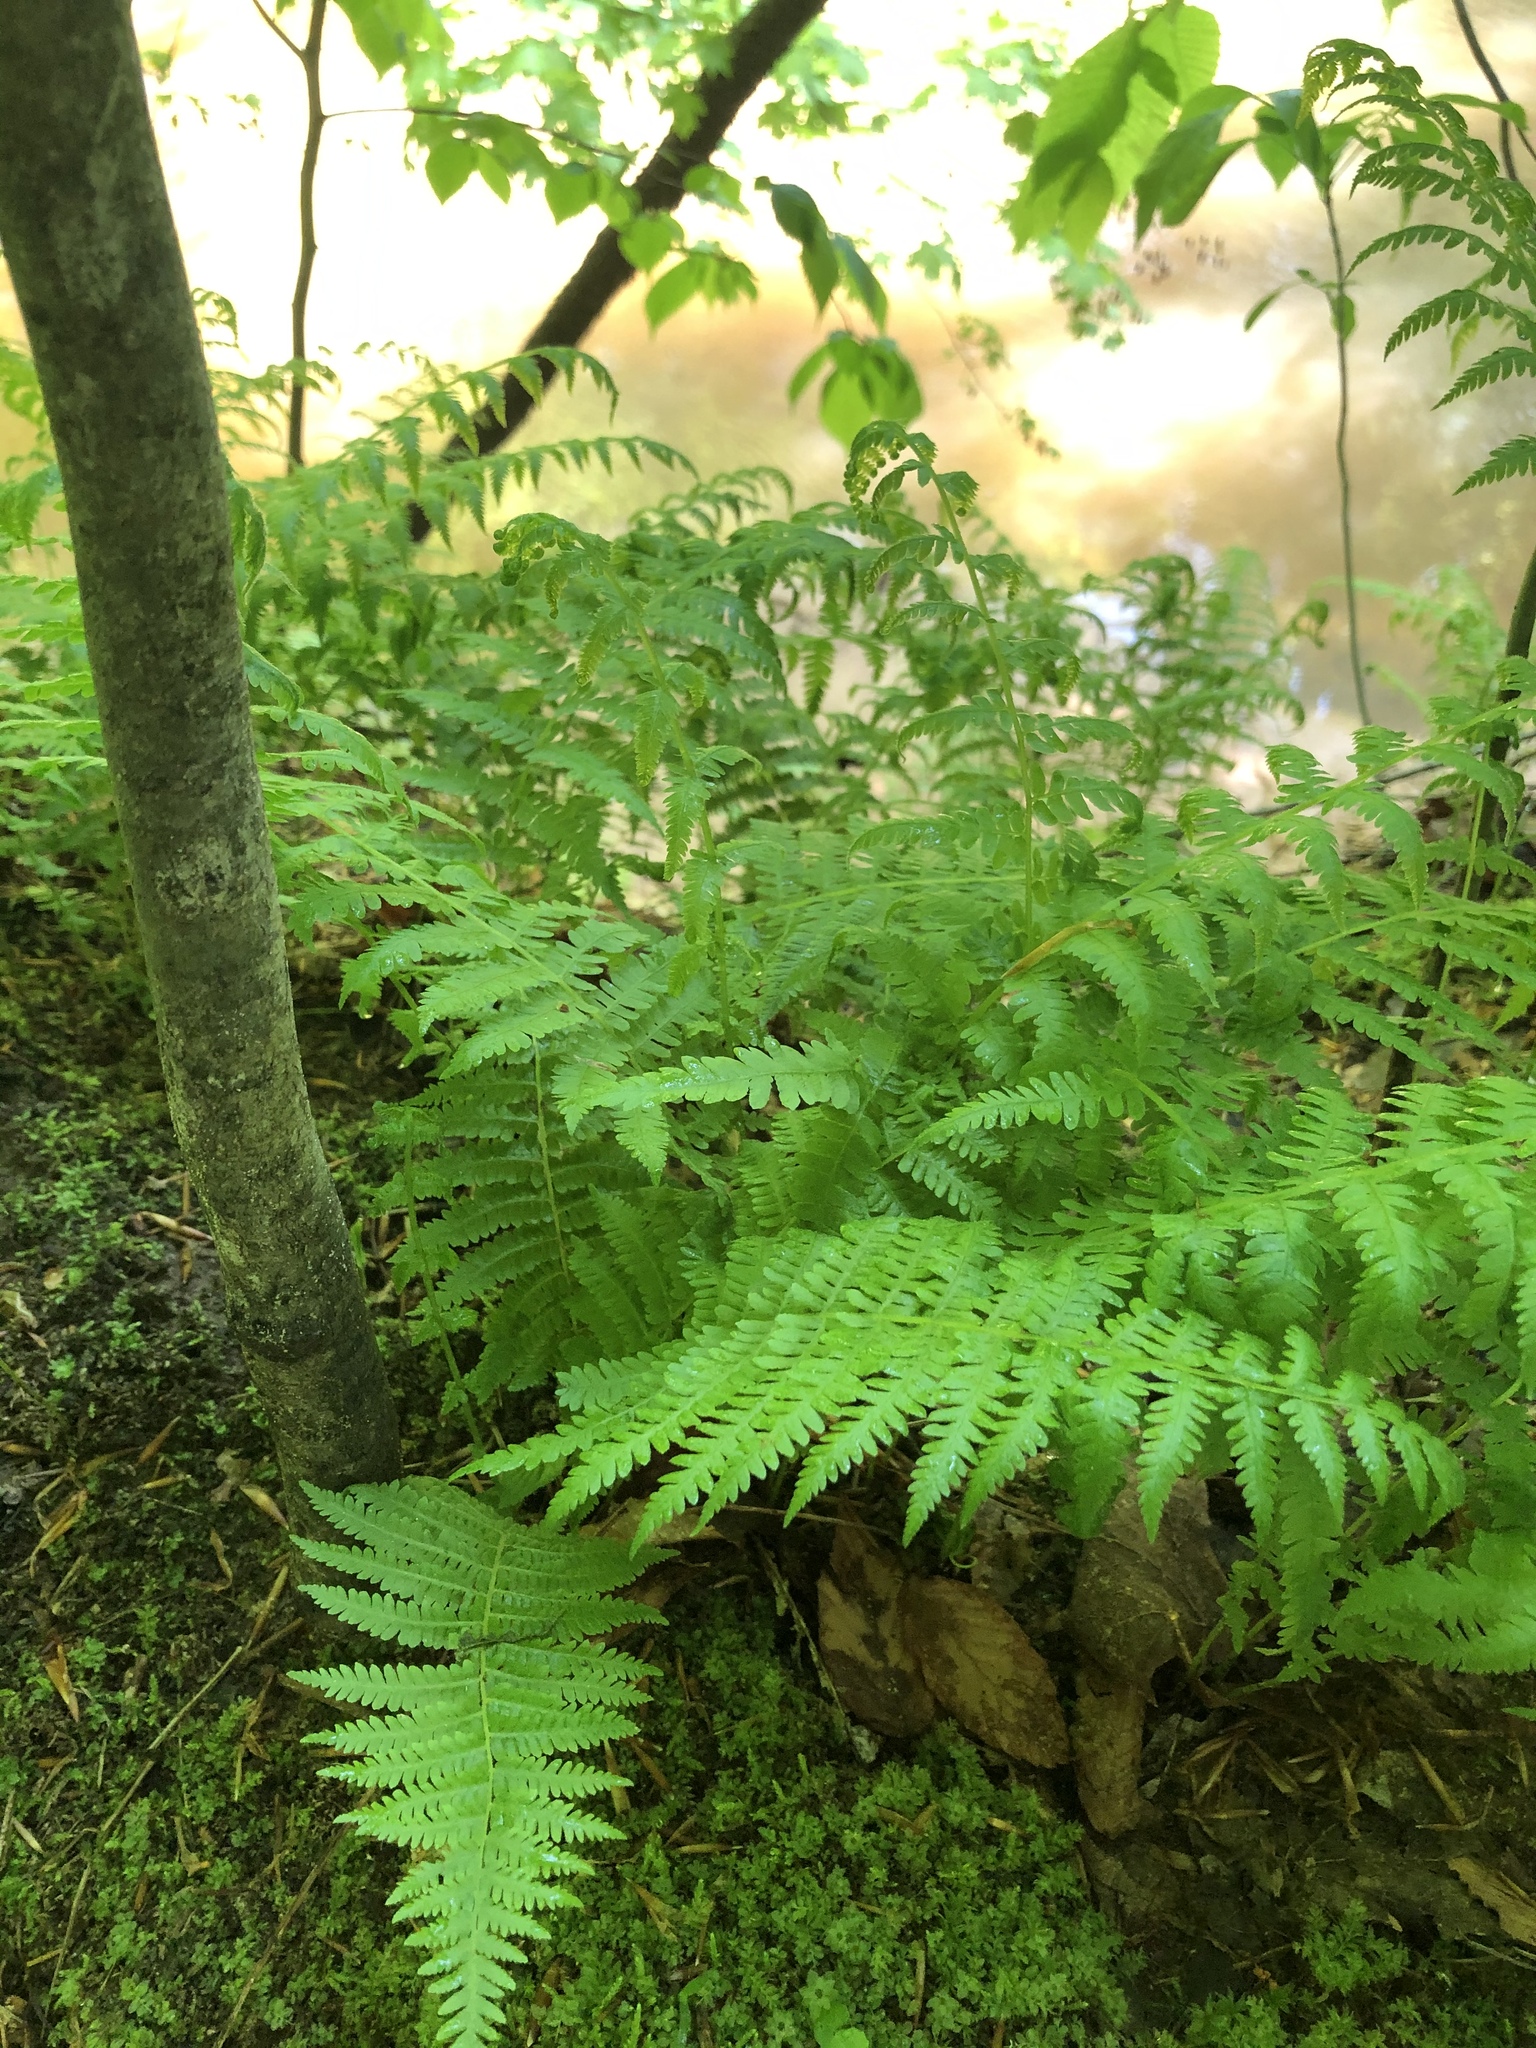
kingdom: Plantae
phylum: Tracheophyta
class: Polypodiopsida
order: Polypodiales
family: Dryopteridaceae
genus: Dryopteris
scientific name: Dryopteris marginalis
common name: Marginal wood fern
